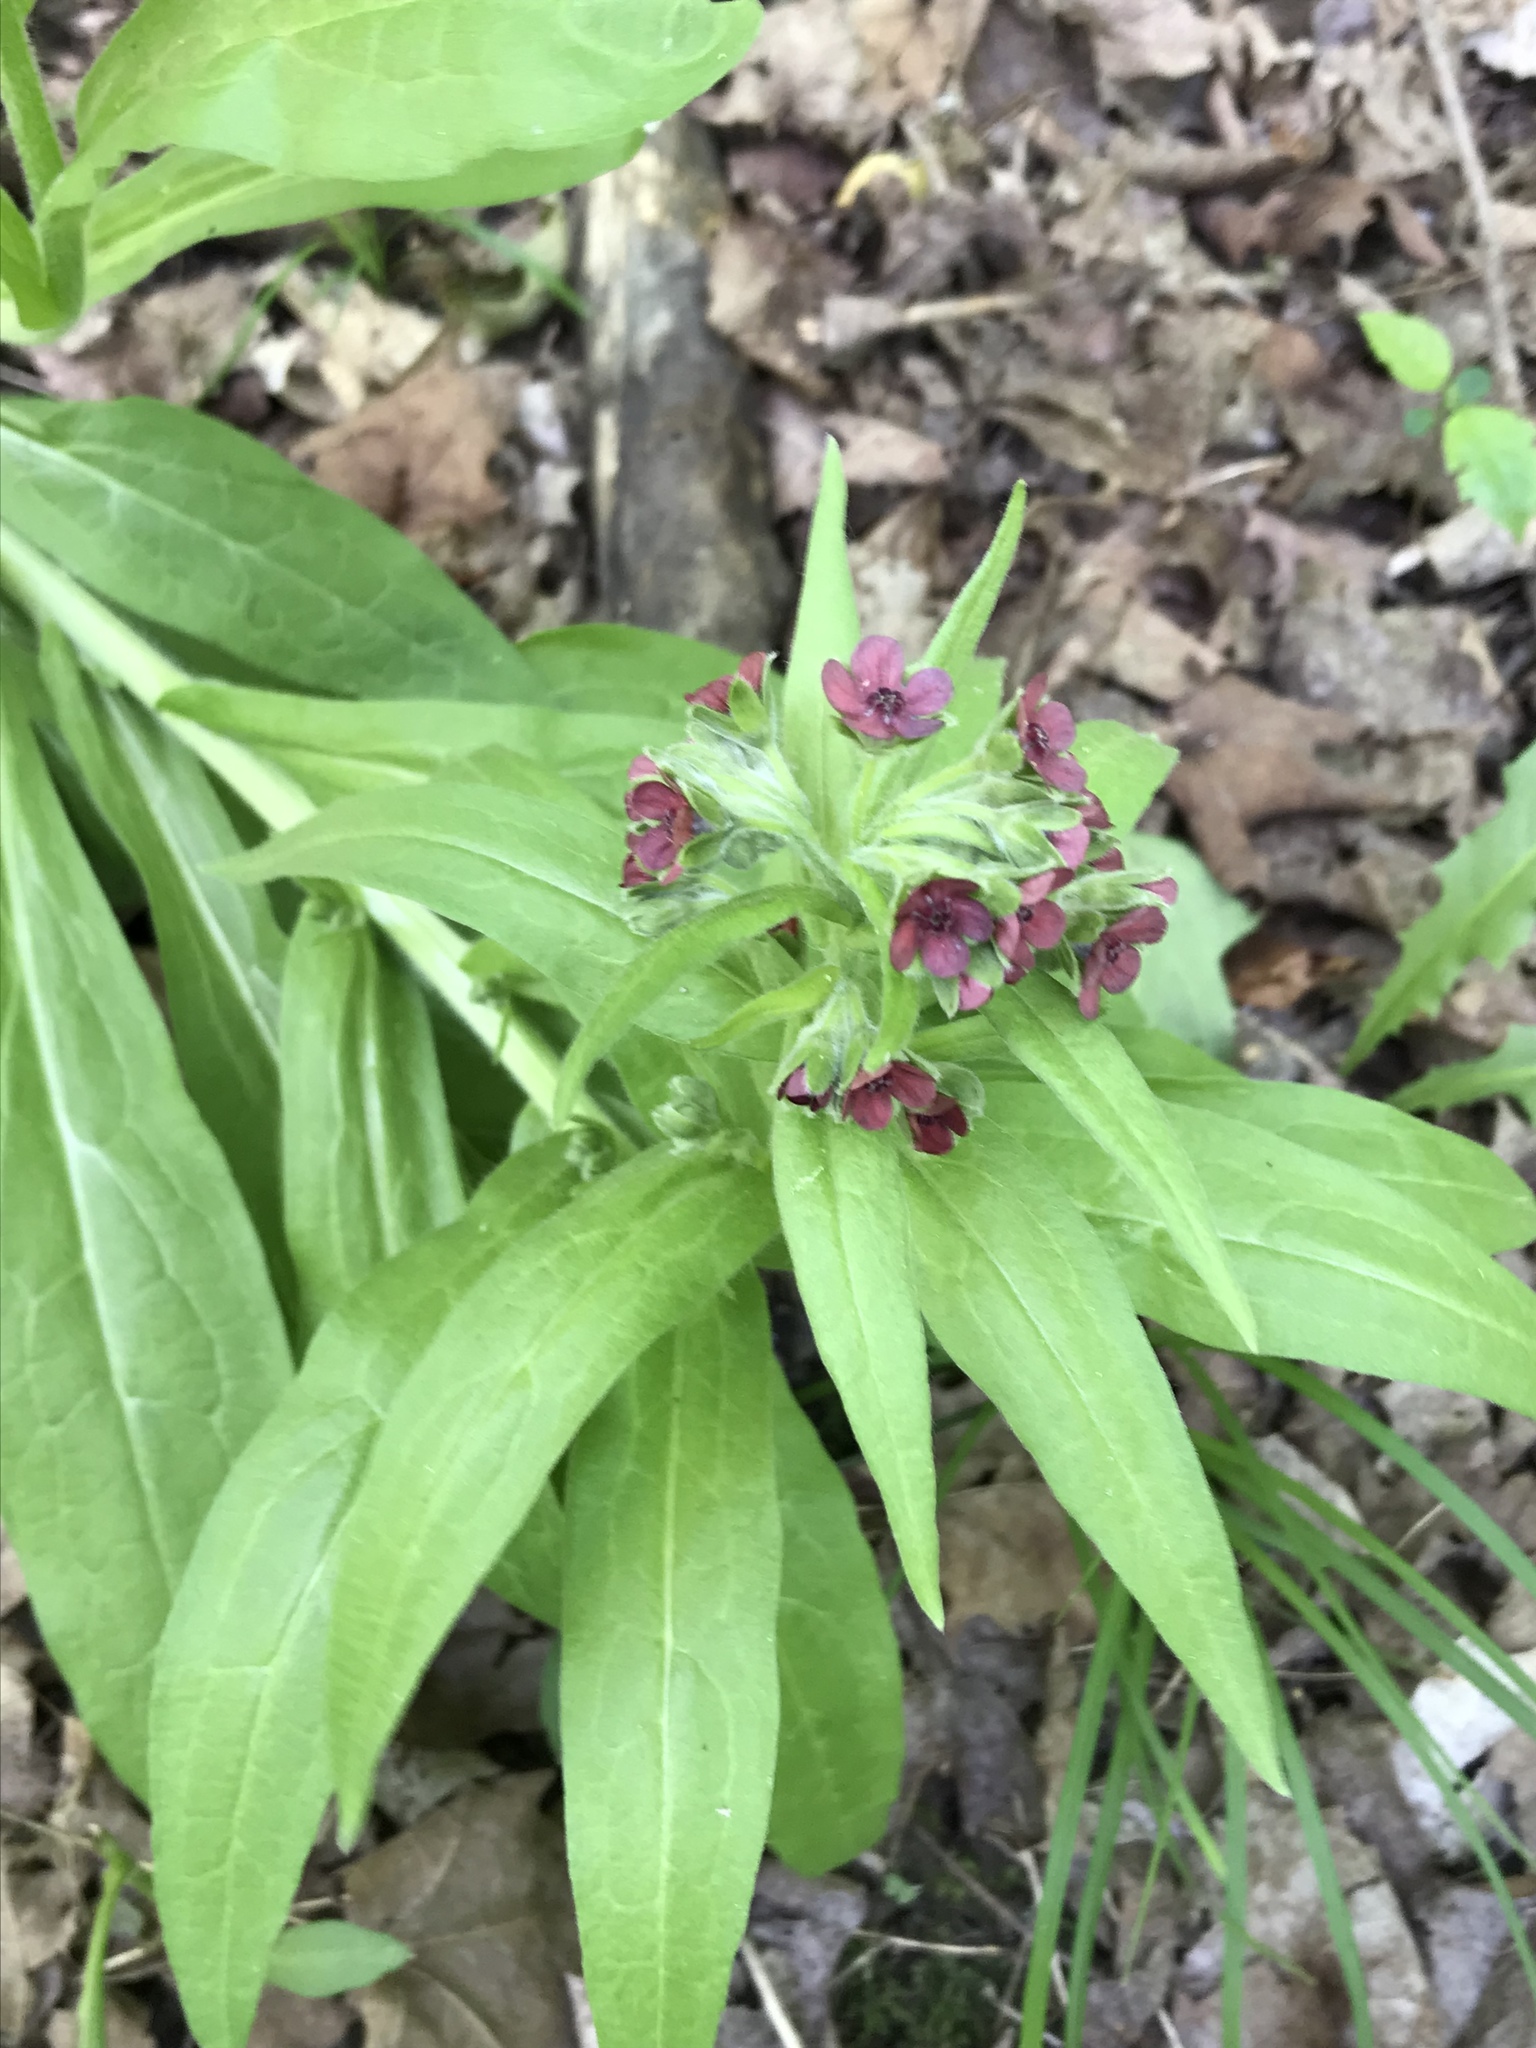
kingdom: Plantae
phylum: Tracheophyta
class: Magnoliopsida
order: Boraginales
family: Boraginaceae
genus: Cynoglossum
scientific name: Cynoglossum officinale
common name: Hound's-tongue
